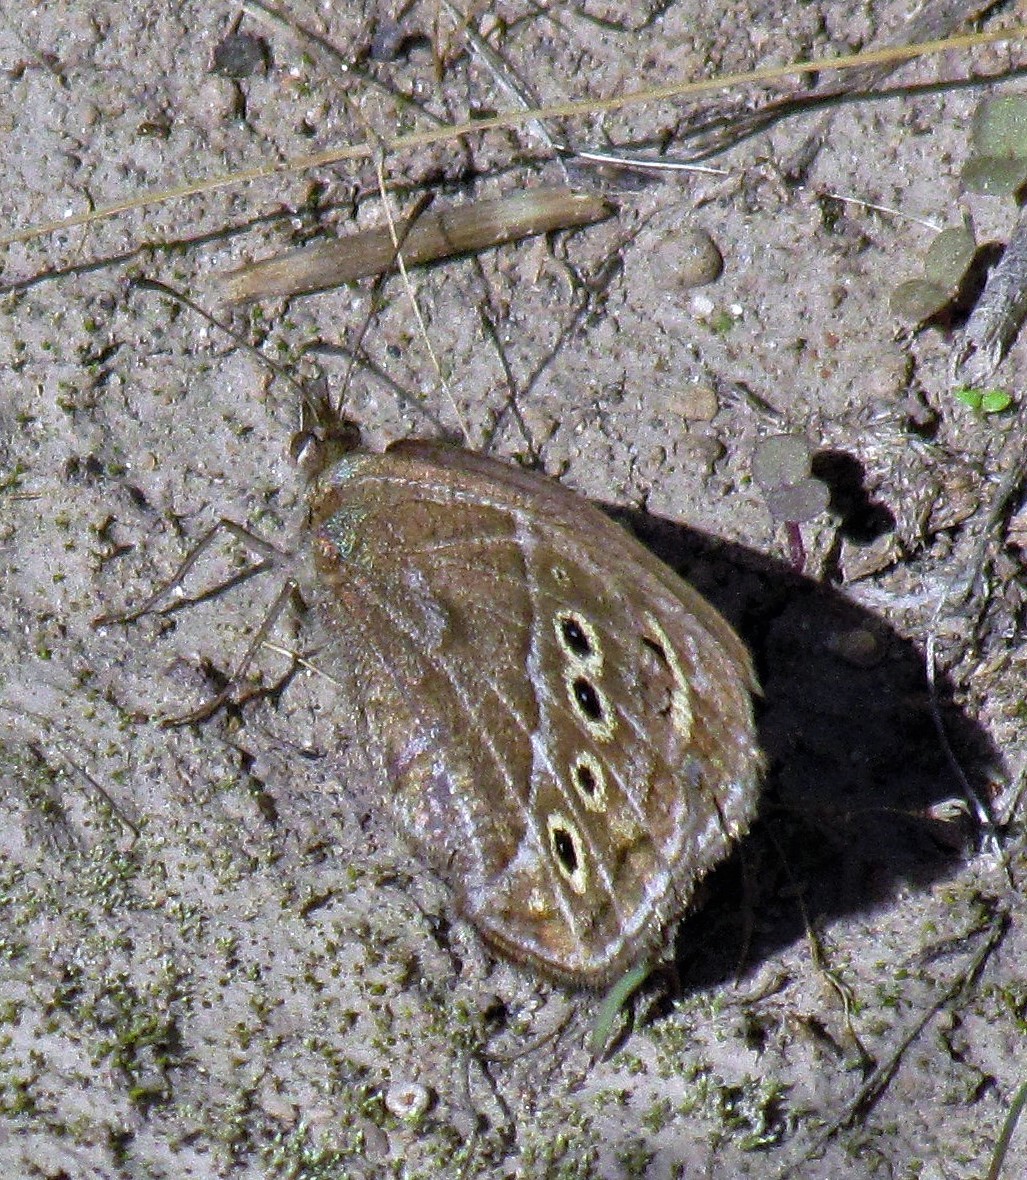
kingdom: Animalia
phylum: Arthropoda
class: Insecta
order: Lepidoptera
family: Nymphalidae
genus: Pampasatyrus
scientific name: Pampasatyrus gyrtone
